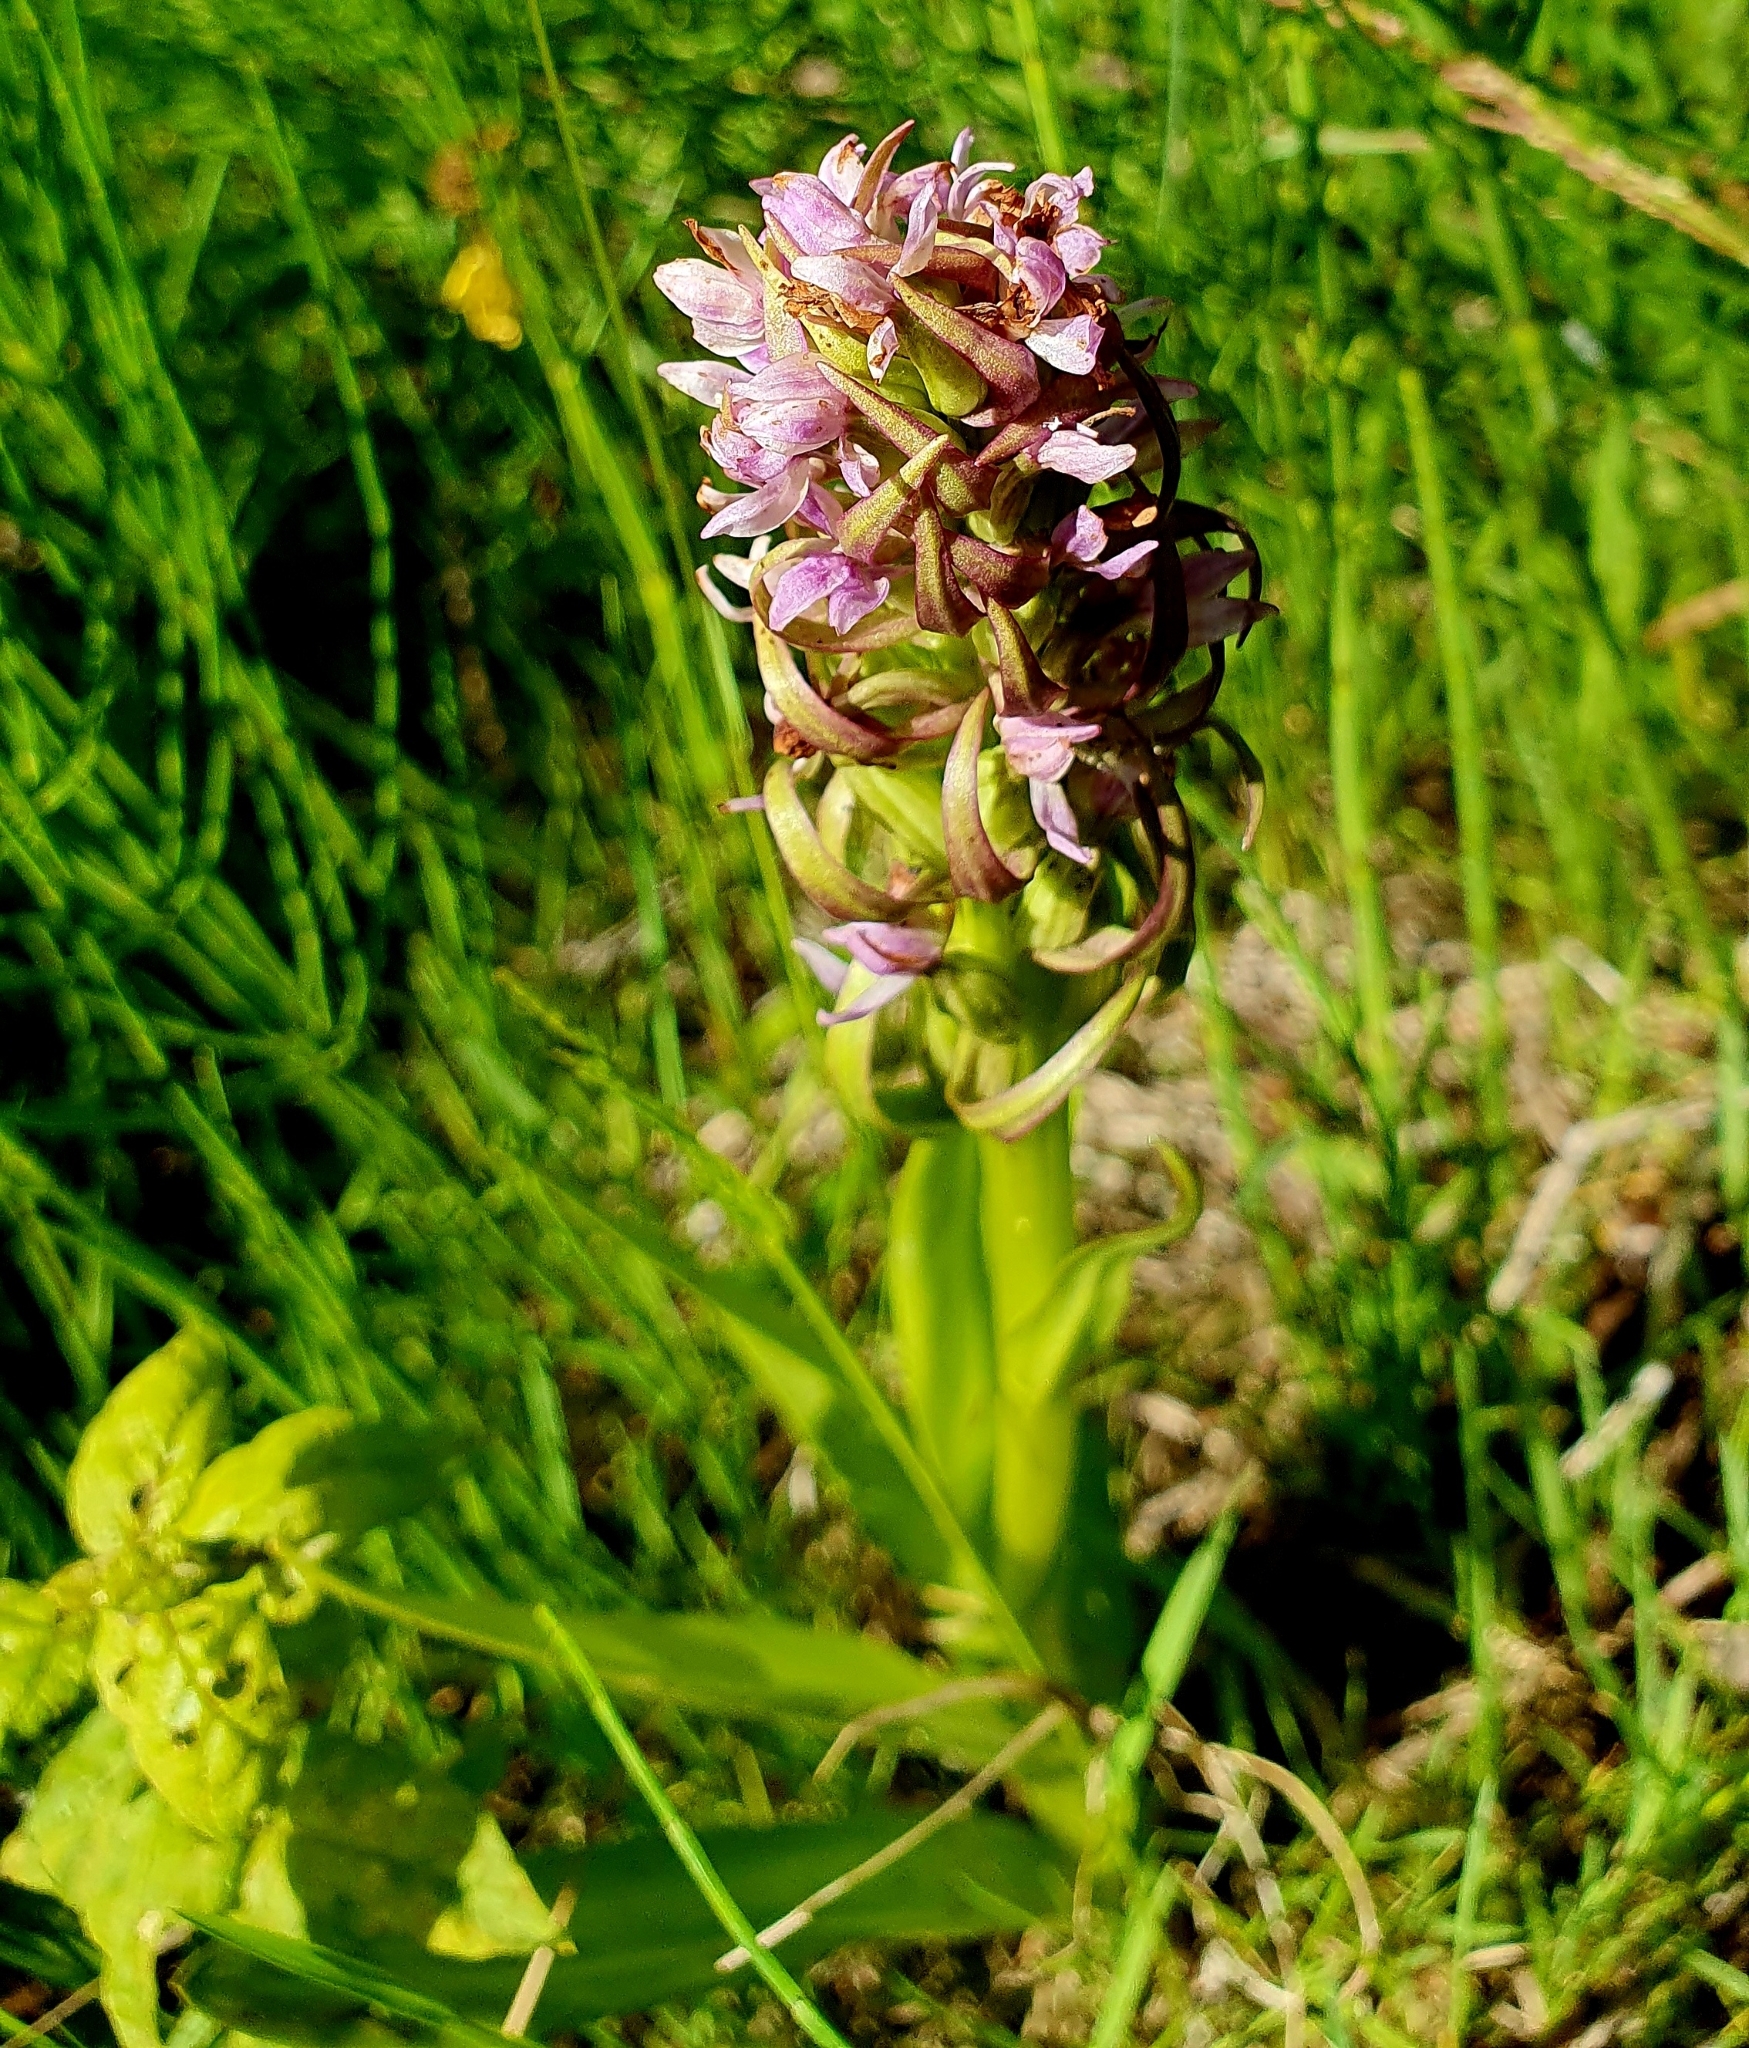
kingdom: Plantae
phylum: Tracheophyta
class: Liliopsida
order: Asparagales
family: Orchidaceae
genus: Dactylorhiza
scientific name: Dactylorhiza incarnata
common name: Early marsh-orchid
